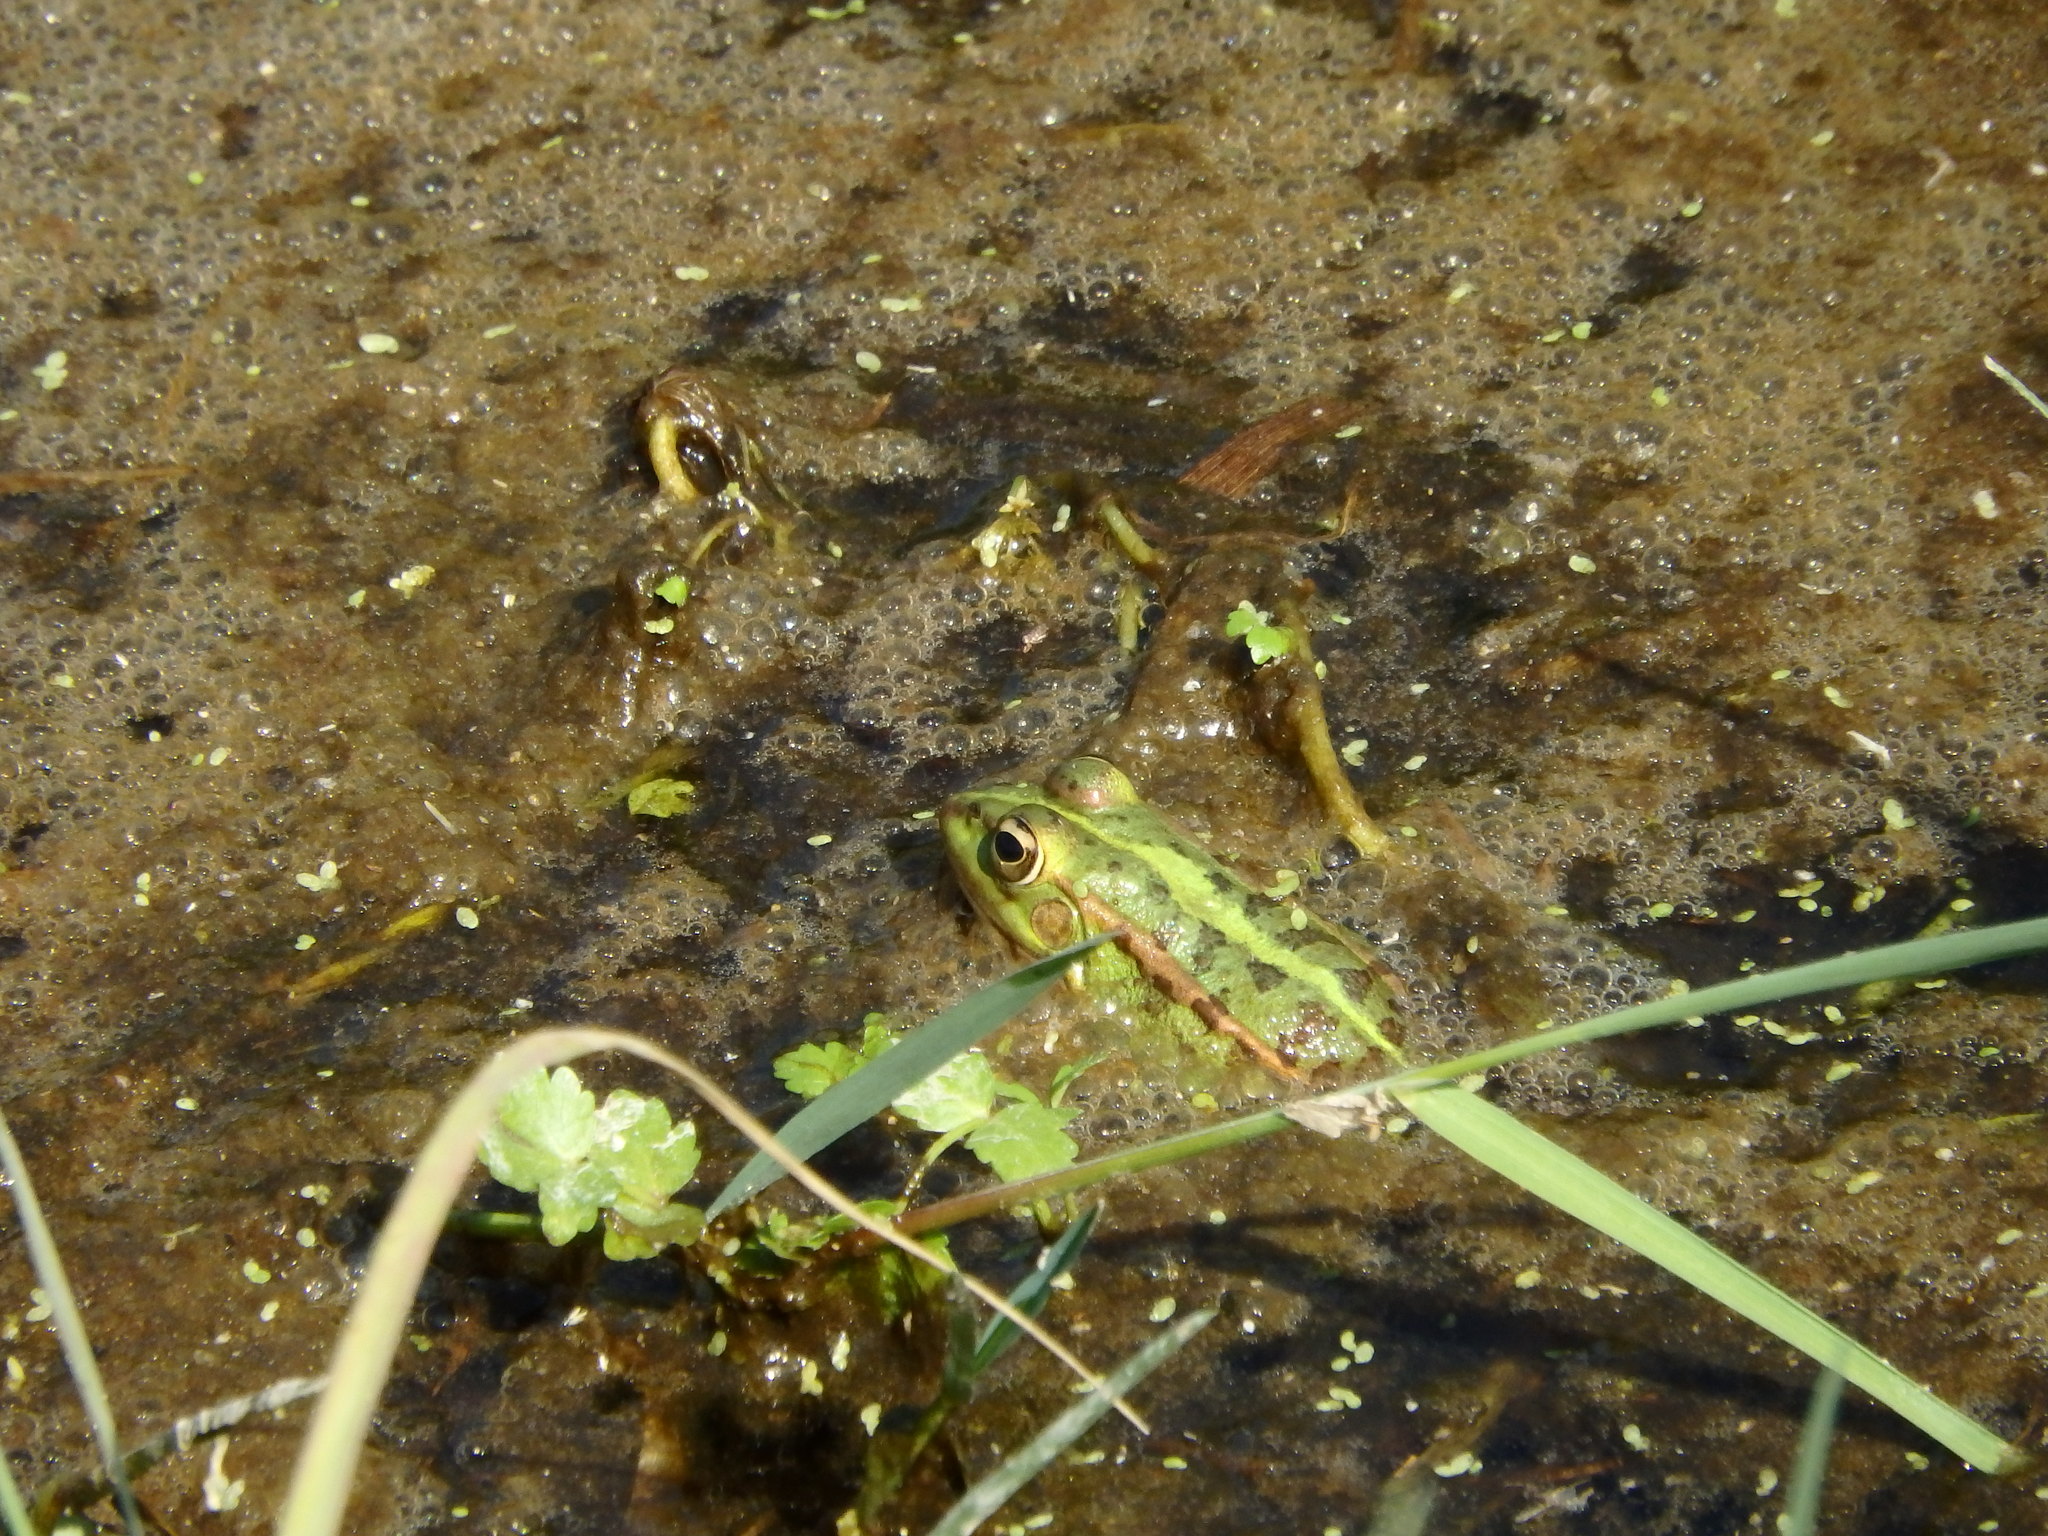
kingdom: Animalia
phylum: Chordata
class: Amphibia
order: Anura
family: Ranidae
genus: Pelophylax
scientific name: Pelophylax perezi
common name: Perez's frog
